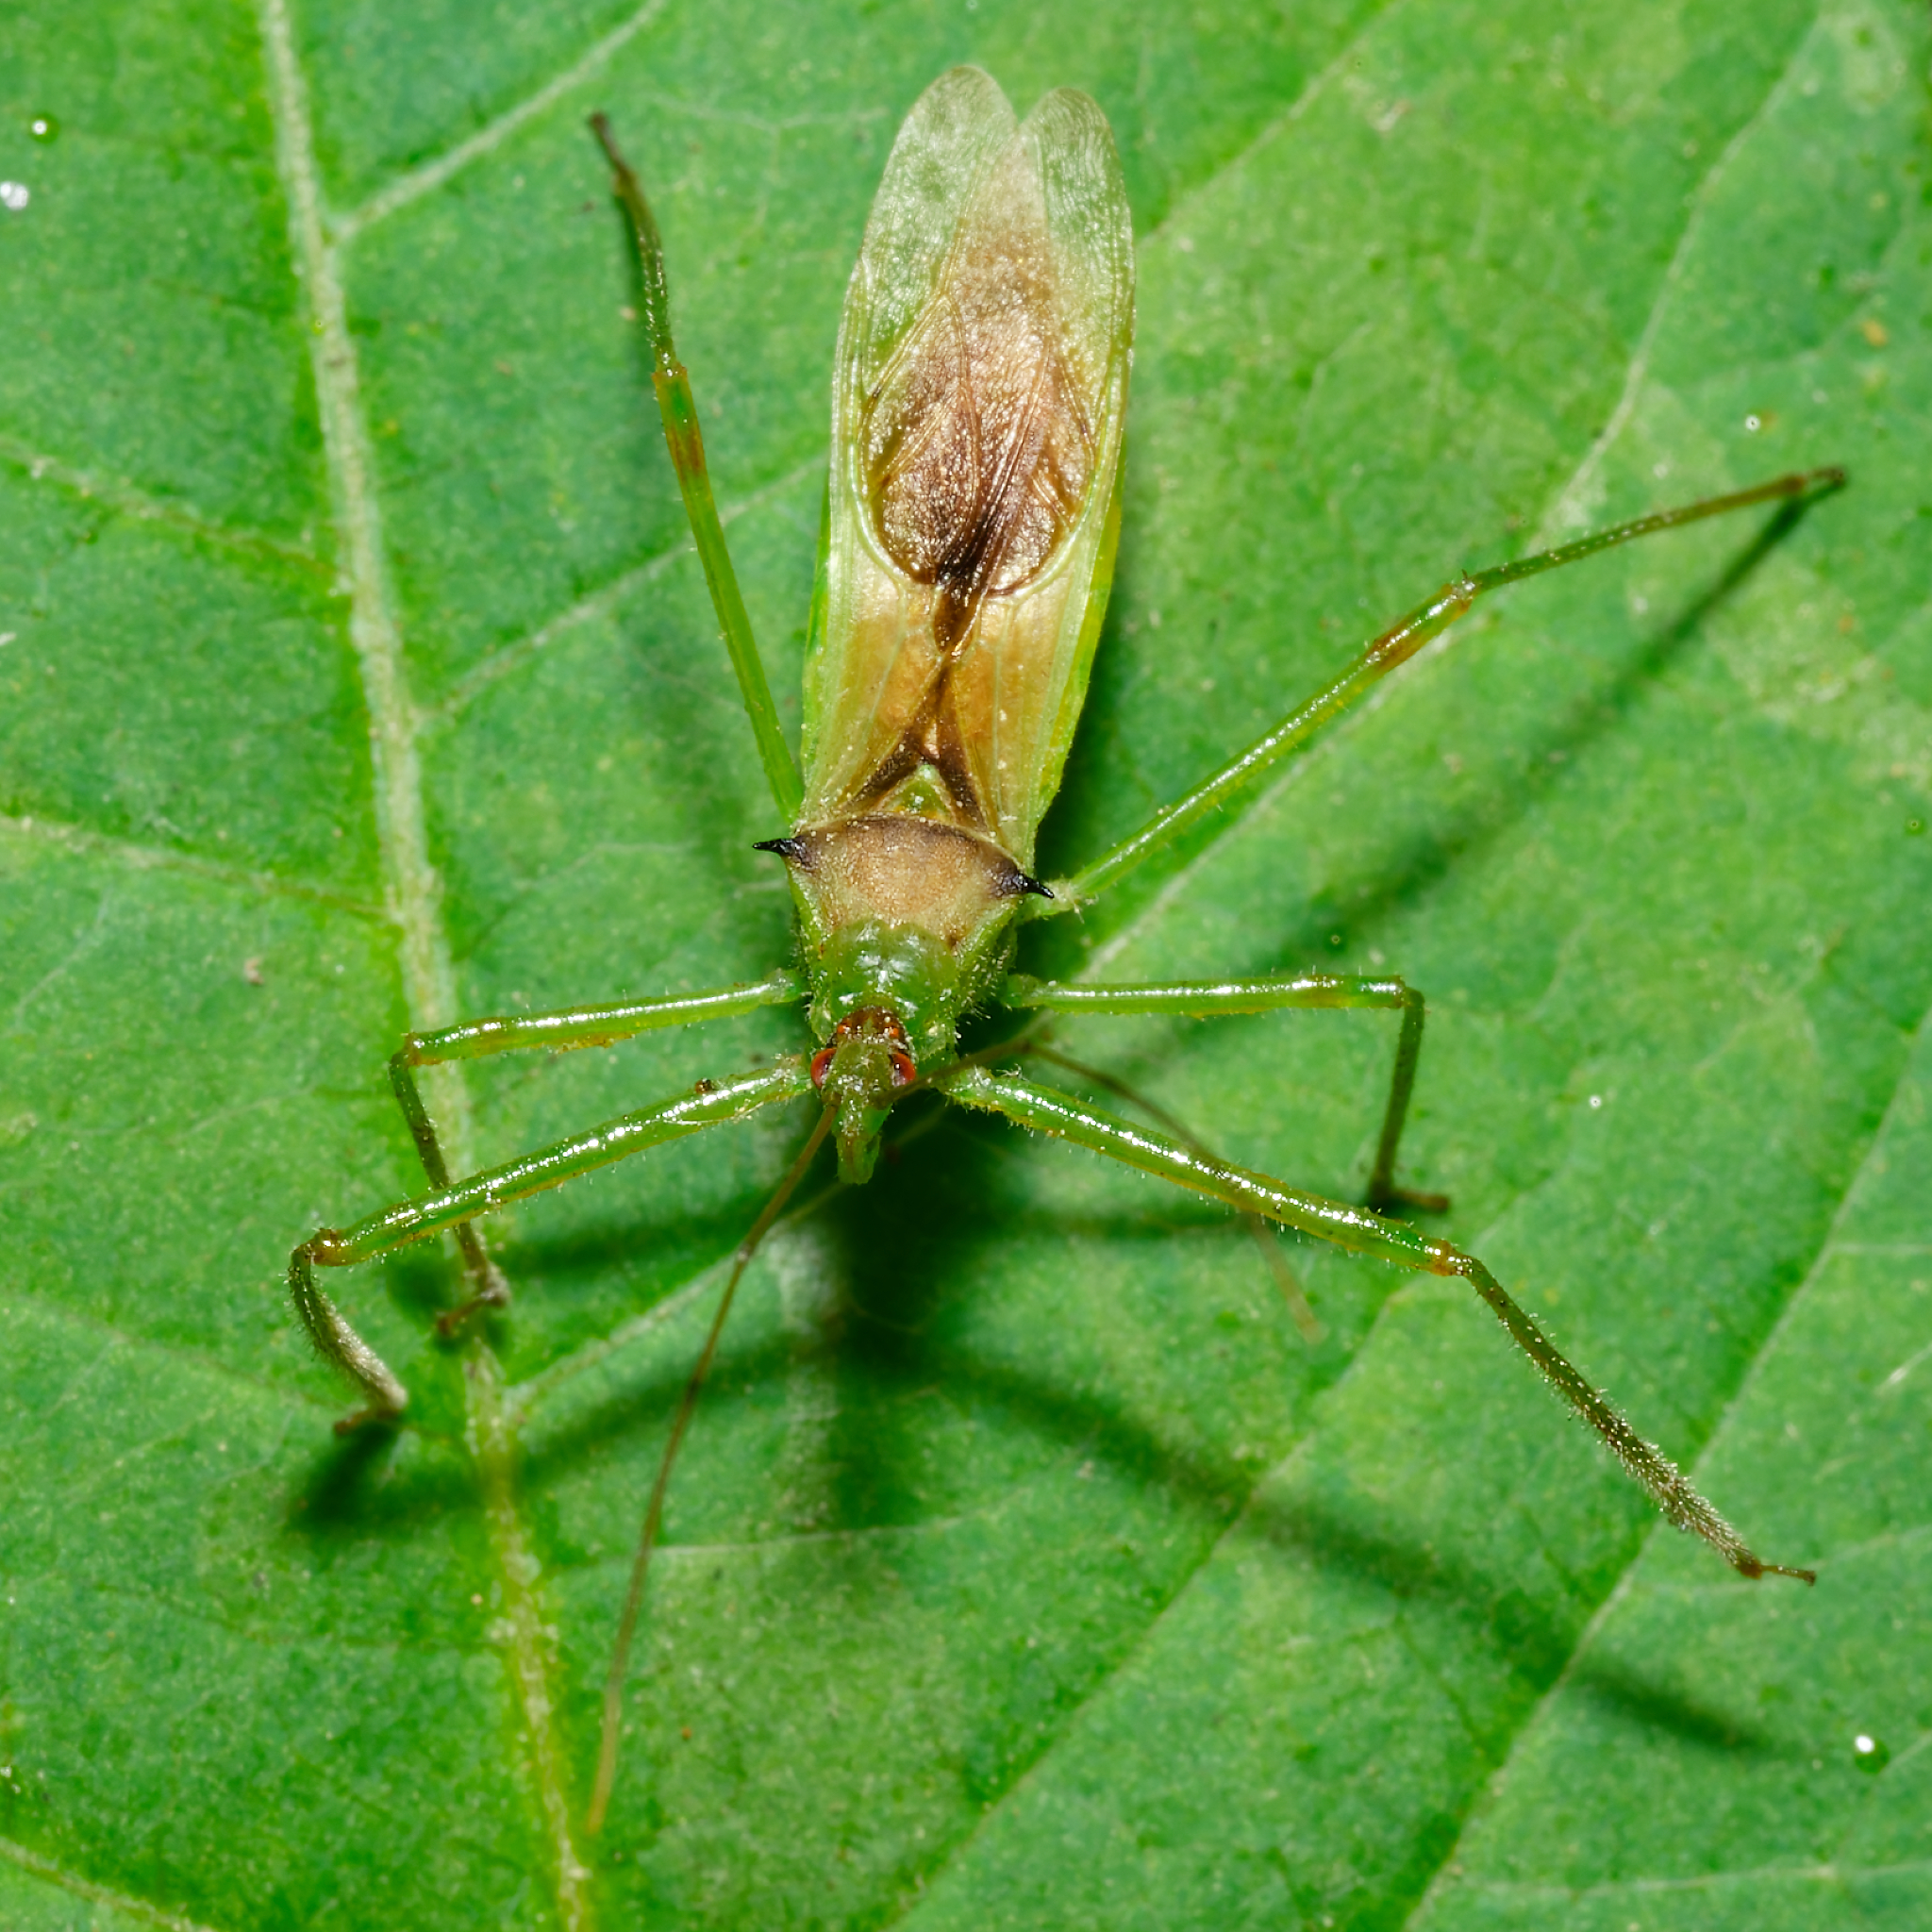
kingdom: Animalia
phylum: Arthropoda
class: Insecta
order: Hemiptera
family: Reduviidae
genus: Zelus
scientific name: Zelus luridus
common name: Pale green assassin bug
